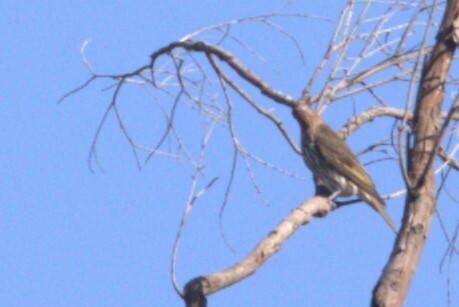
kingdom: Animalia
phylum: Chordata
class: Aves
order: Passeriformes
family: Oriolidae
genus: Sphecotheres
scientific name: Sphecotheres vieilloti
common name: Australasian figbird
